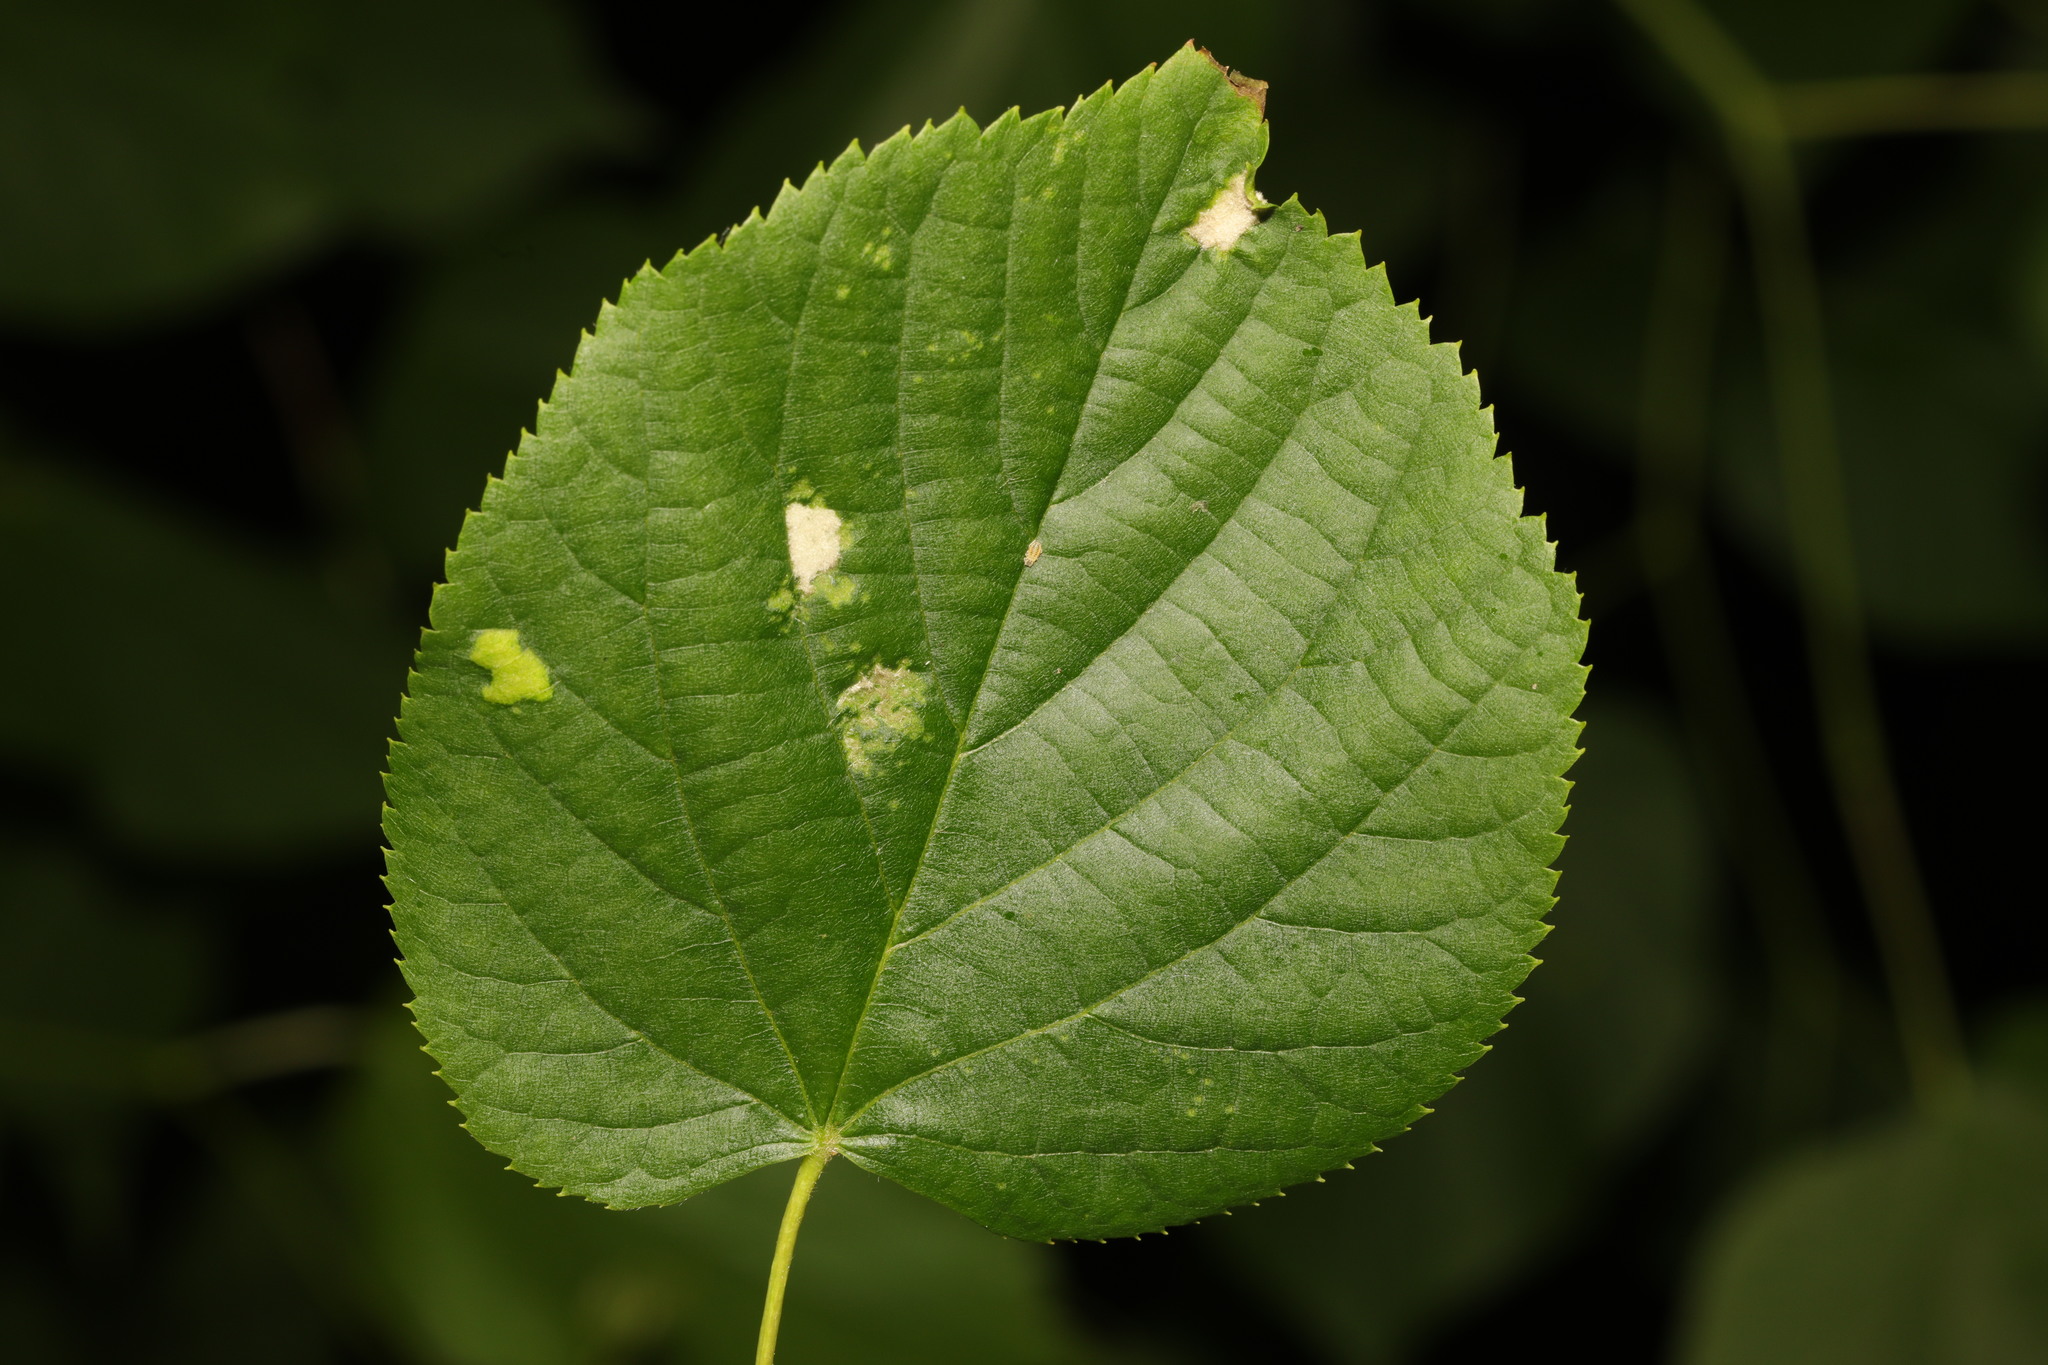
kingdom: Animalia
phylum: Arthropoda
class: Arachnida
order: Trombidiformes
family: Eriophyidae
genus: Eriophyes
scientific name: Eriophyes leiosoma
